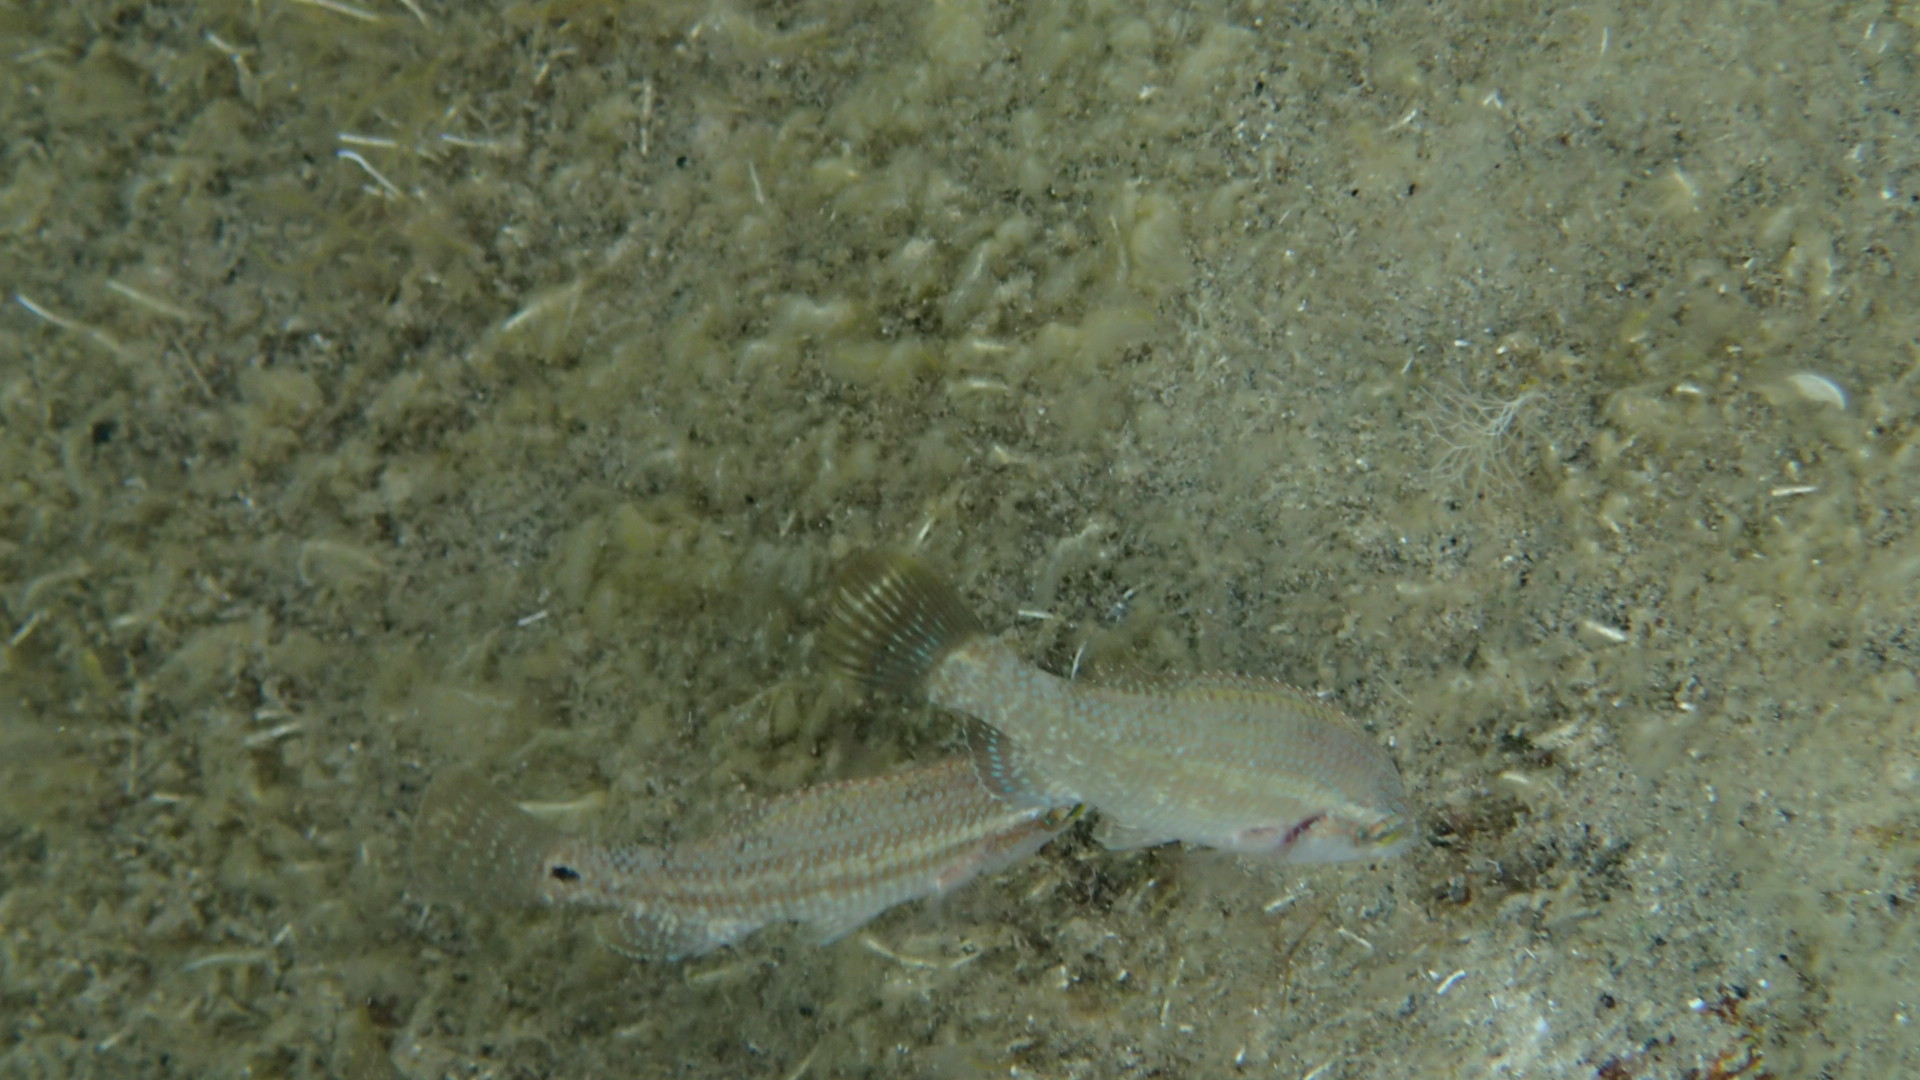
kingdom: Animalia
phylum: Chordata
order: Perciformes
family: Labridae
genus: Symphodus
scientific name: Symphodus tinca
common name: Peacock wrasse
